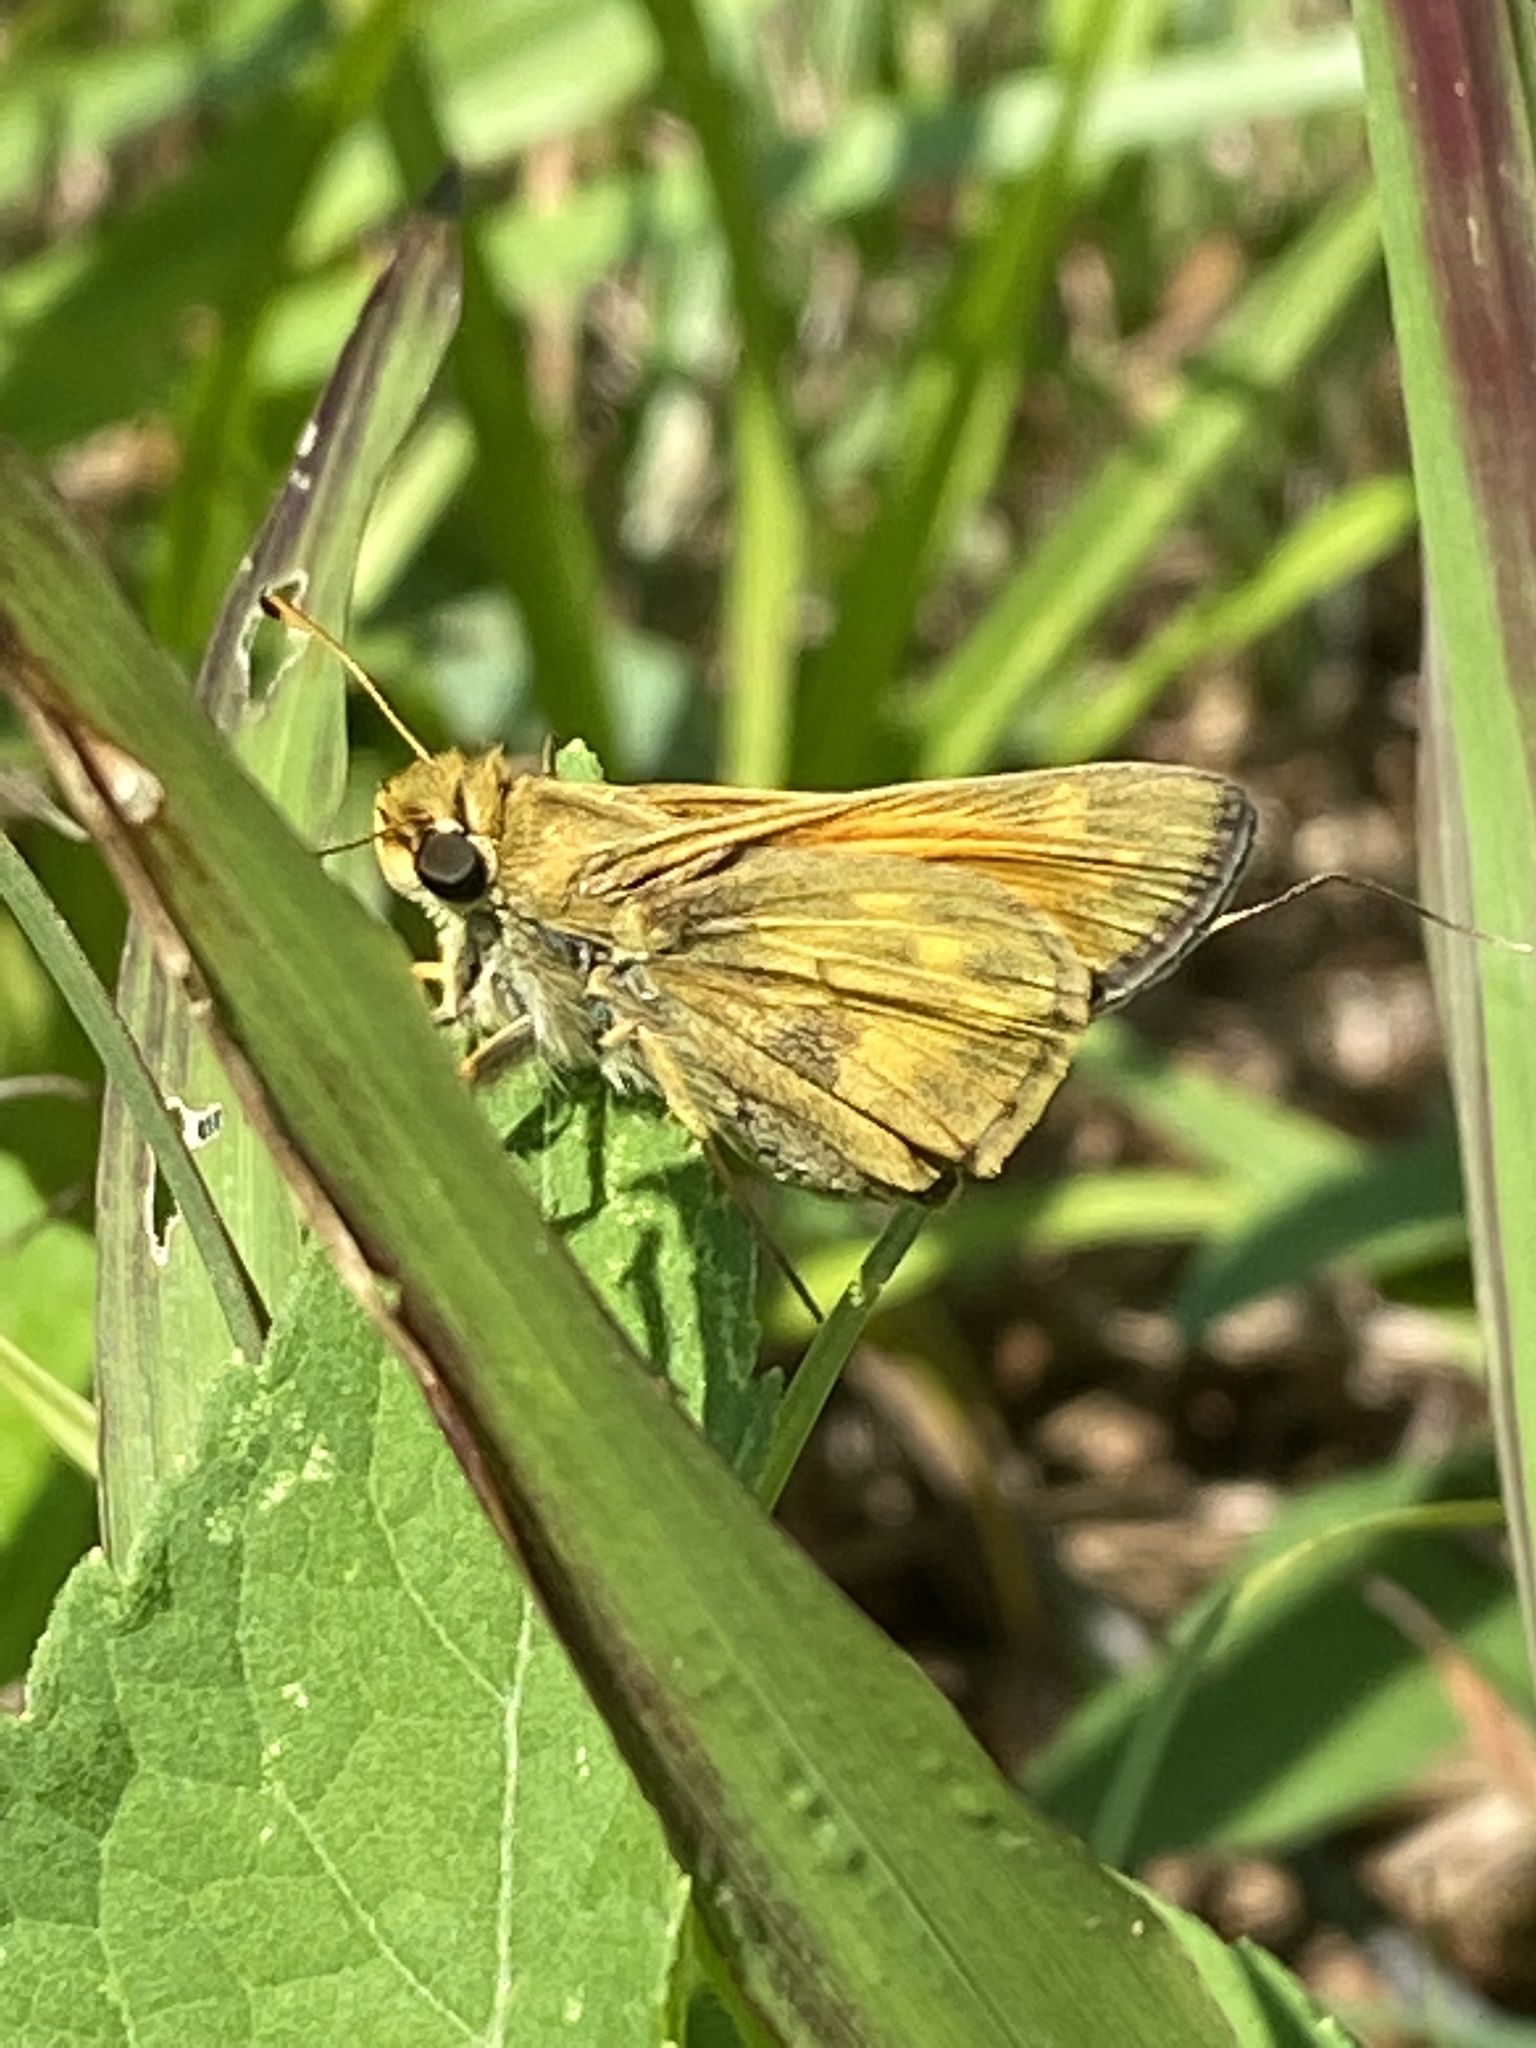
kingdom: Animalia
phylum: Arthropoda
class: Insecta
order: Lepidoptera
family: Hesperiidae
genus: Atalopedes
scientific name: Atalopedes
